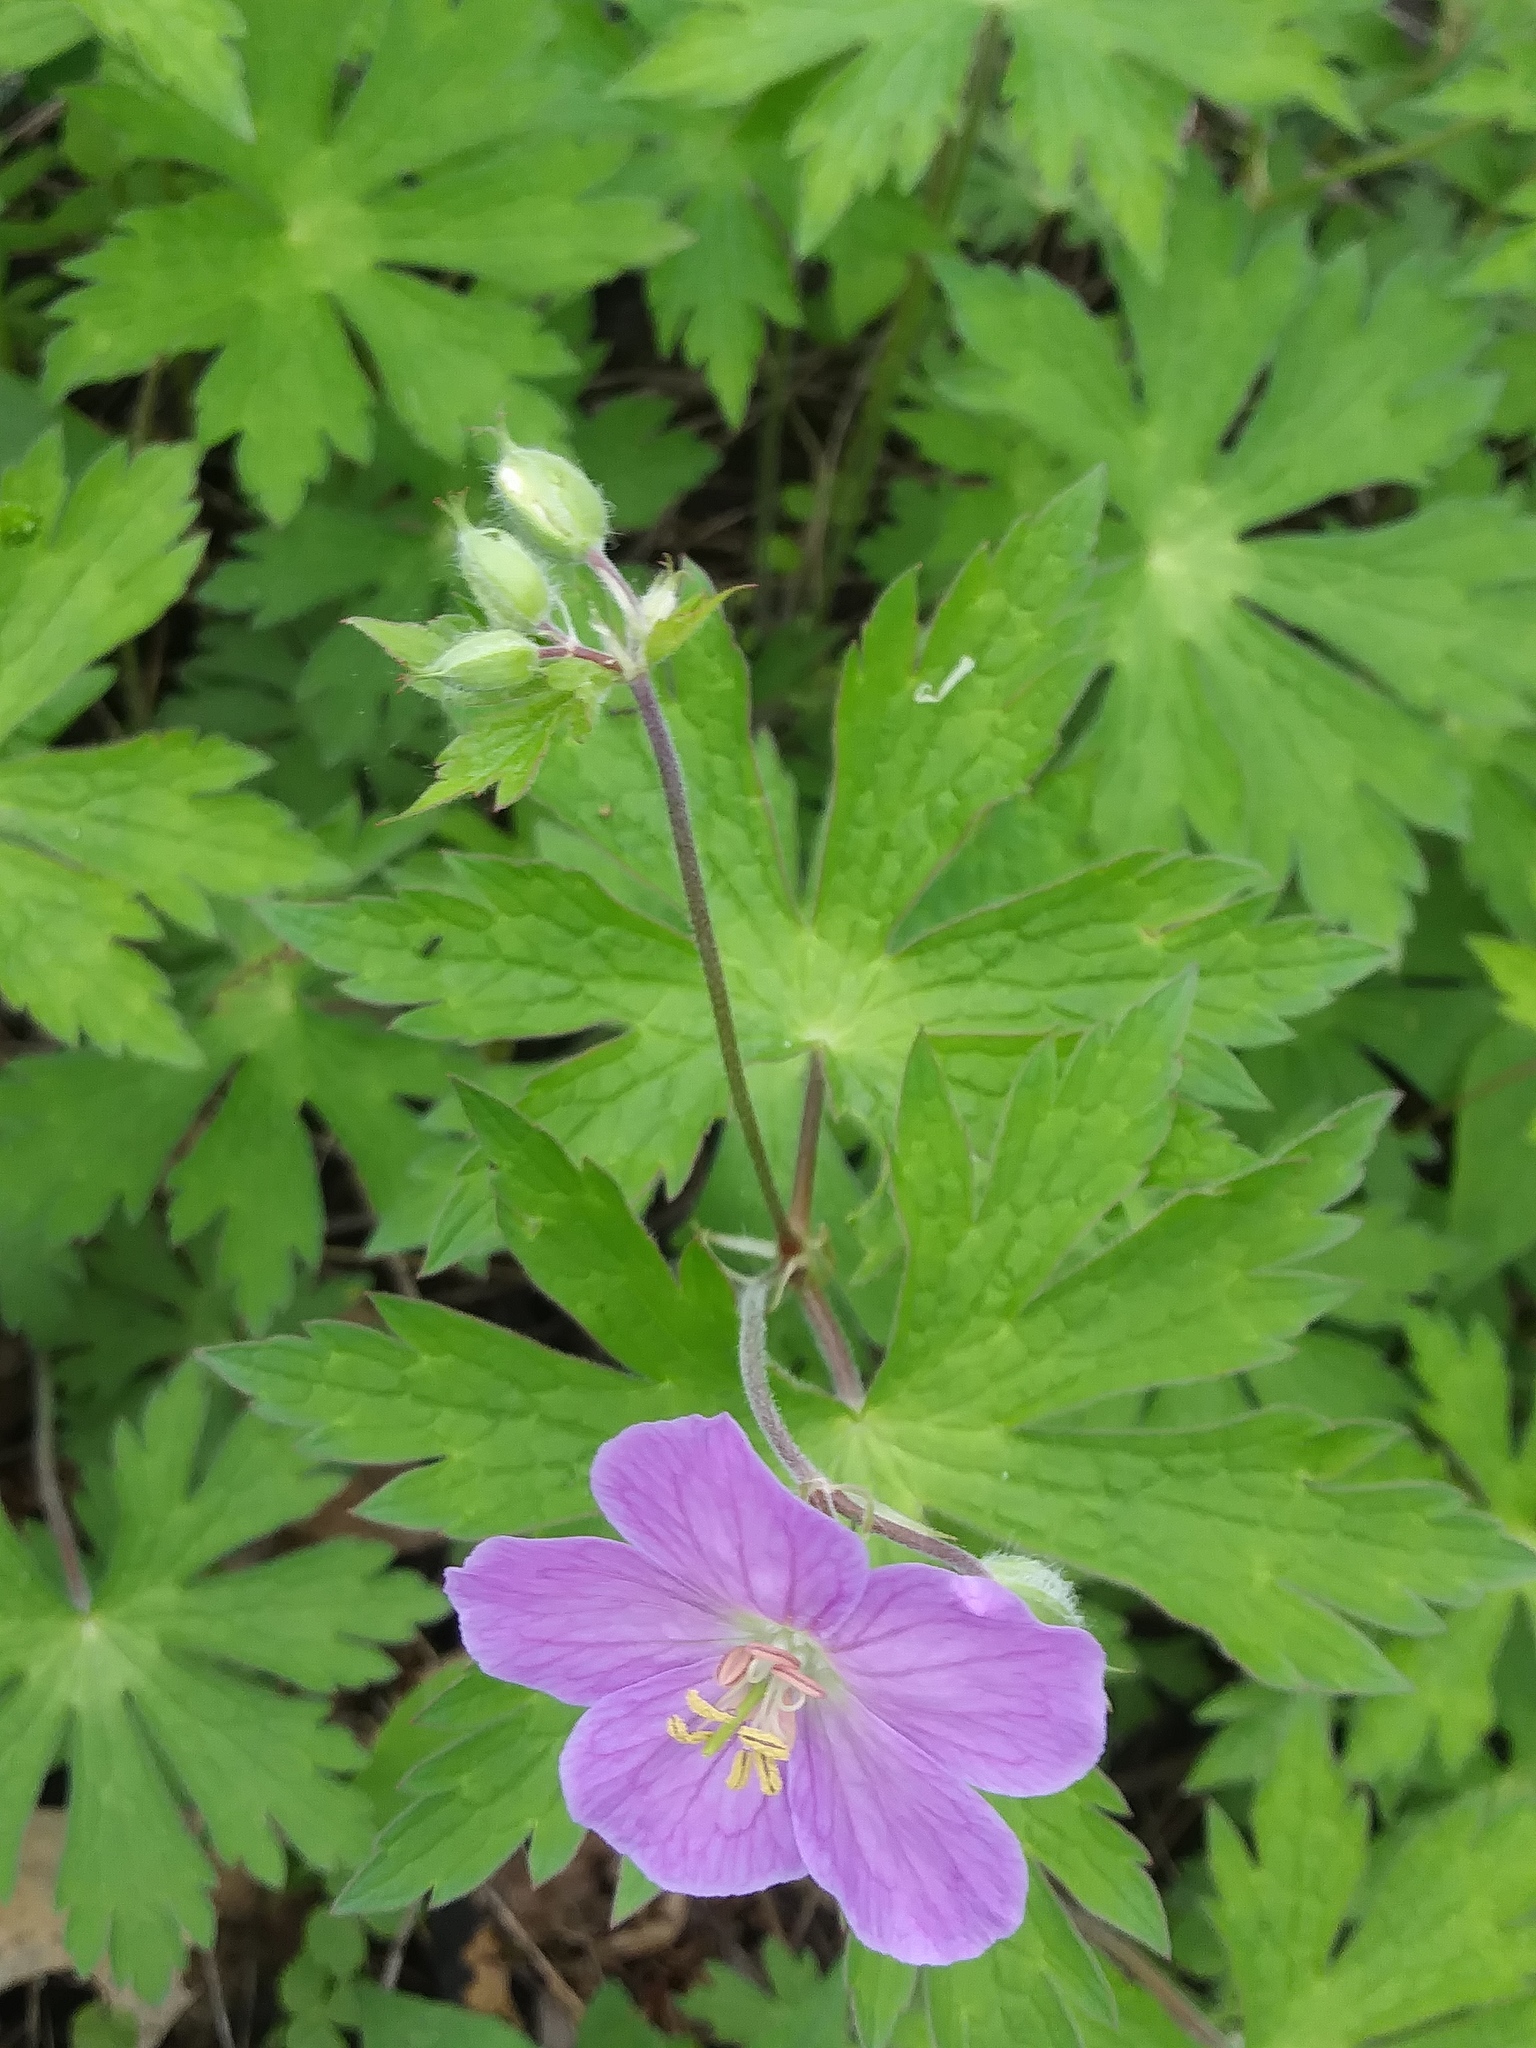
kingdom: Plantae
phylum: Tracheophyta
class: Magnoliopsida
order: Geraniales
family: Geraniaceae
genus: Geranium
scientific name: Geranium maculatum
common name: Spotted geranium
